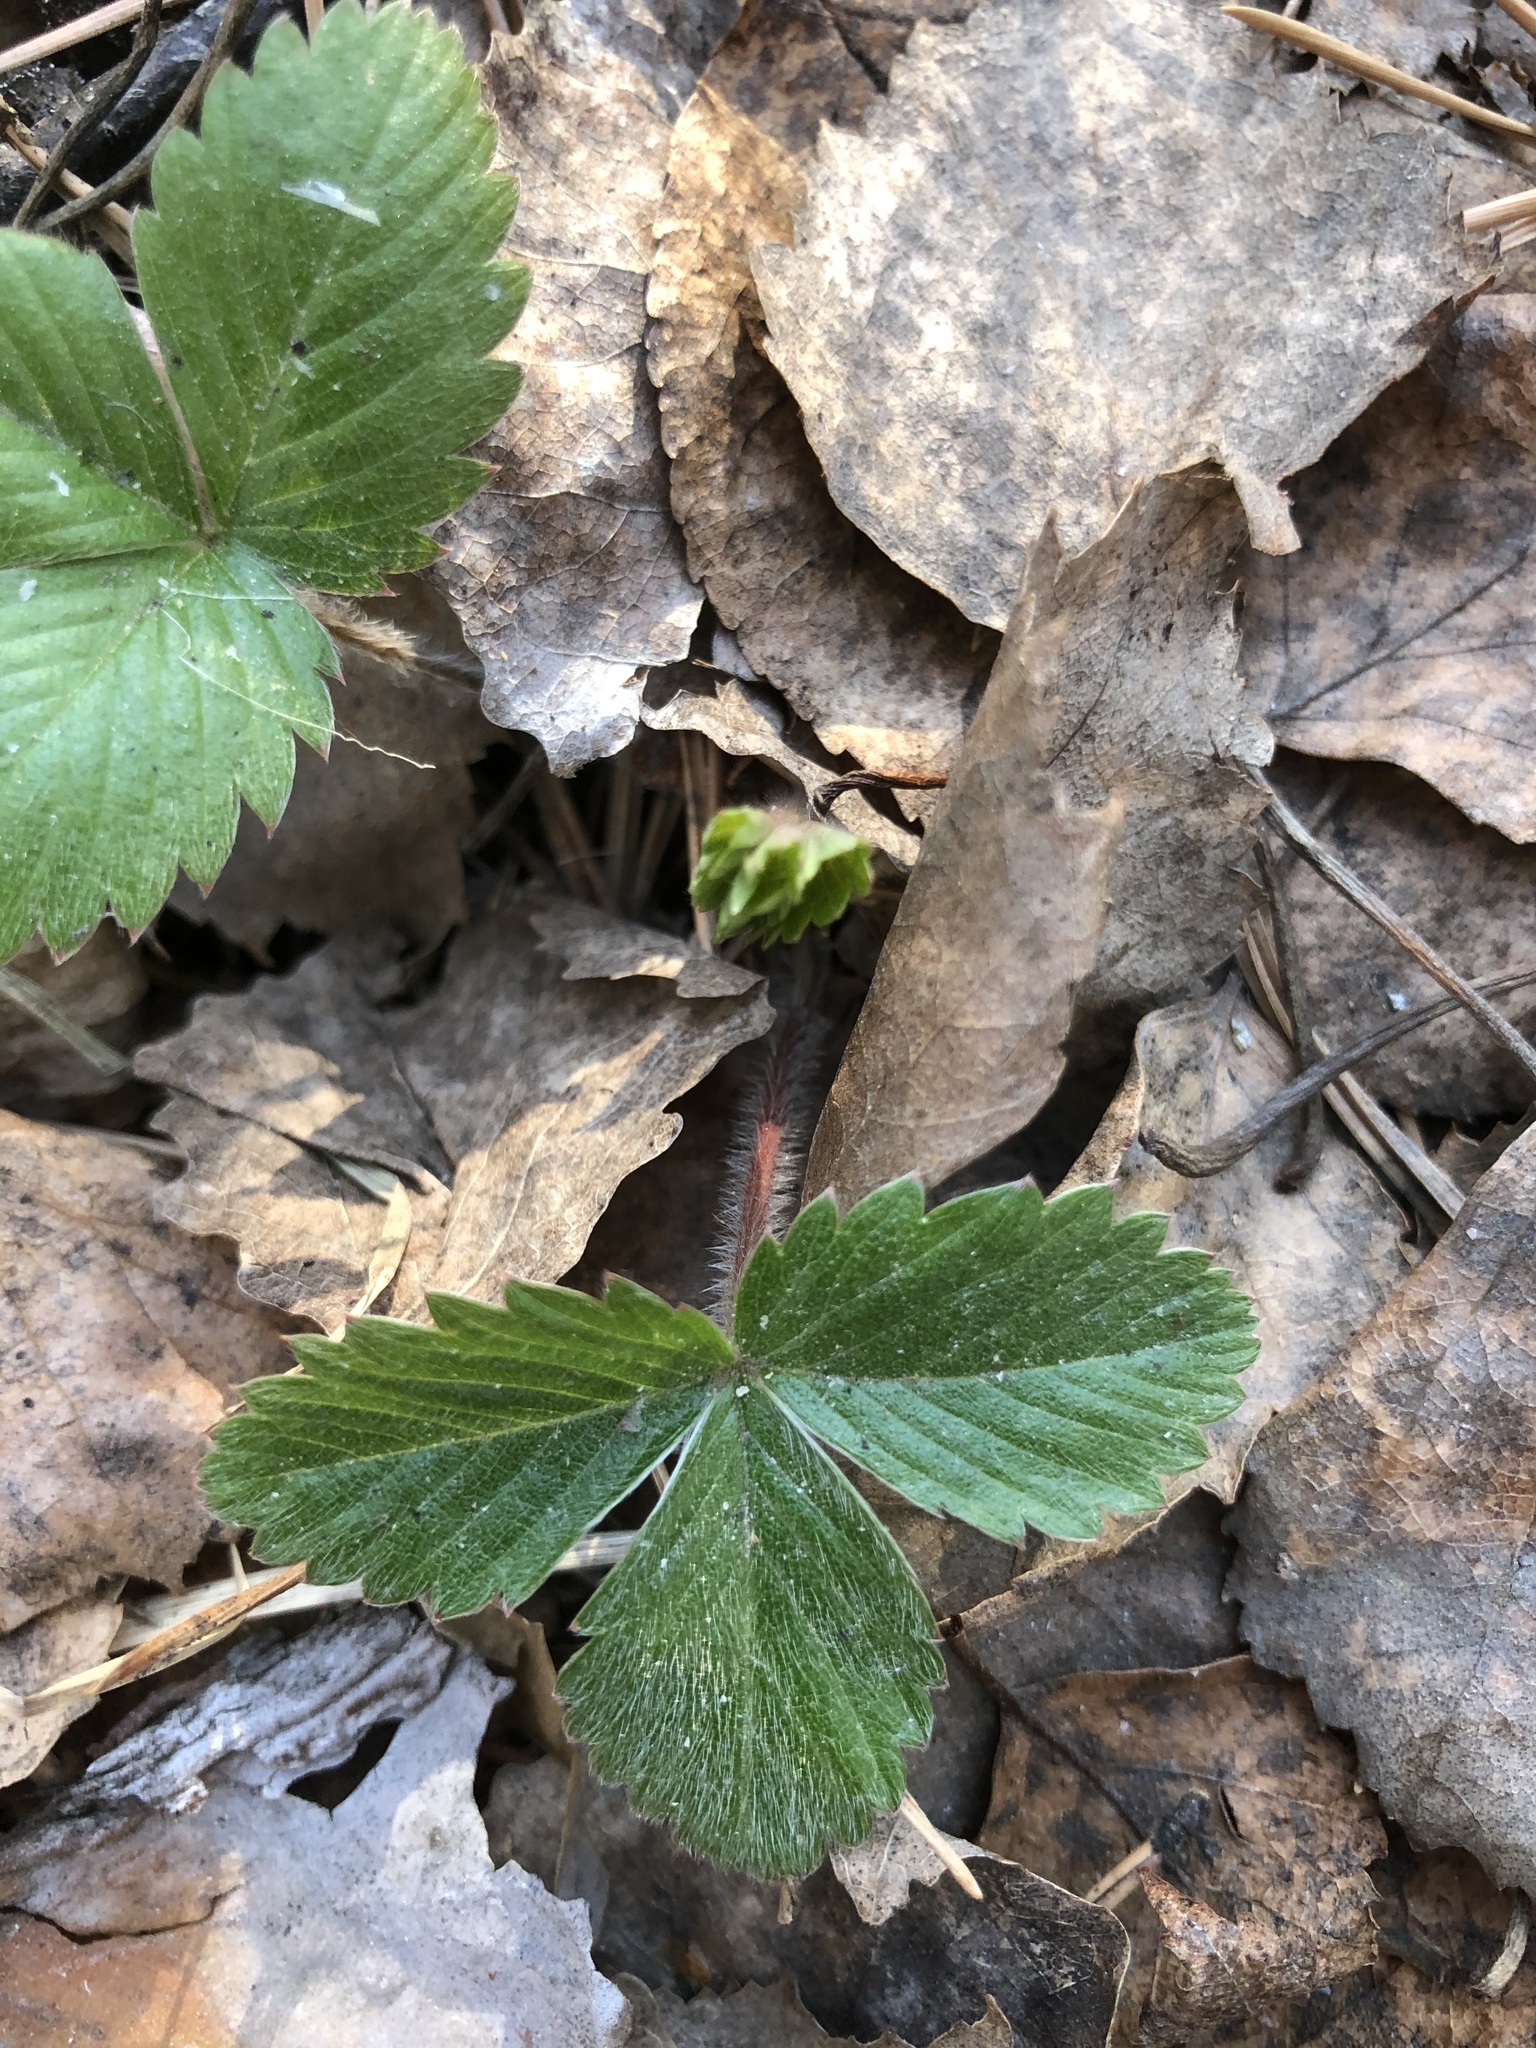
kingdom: Plantae
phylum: Tracheophyta
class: Magnoliopsida
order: Rosales
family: Rosaceae
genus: Fragaria
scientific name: Fragaria vesca
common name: Wild strawberry
